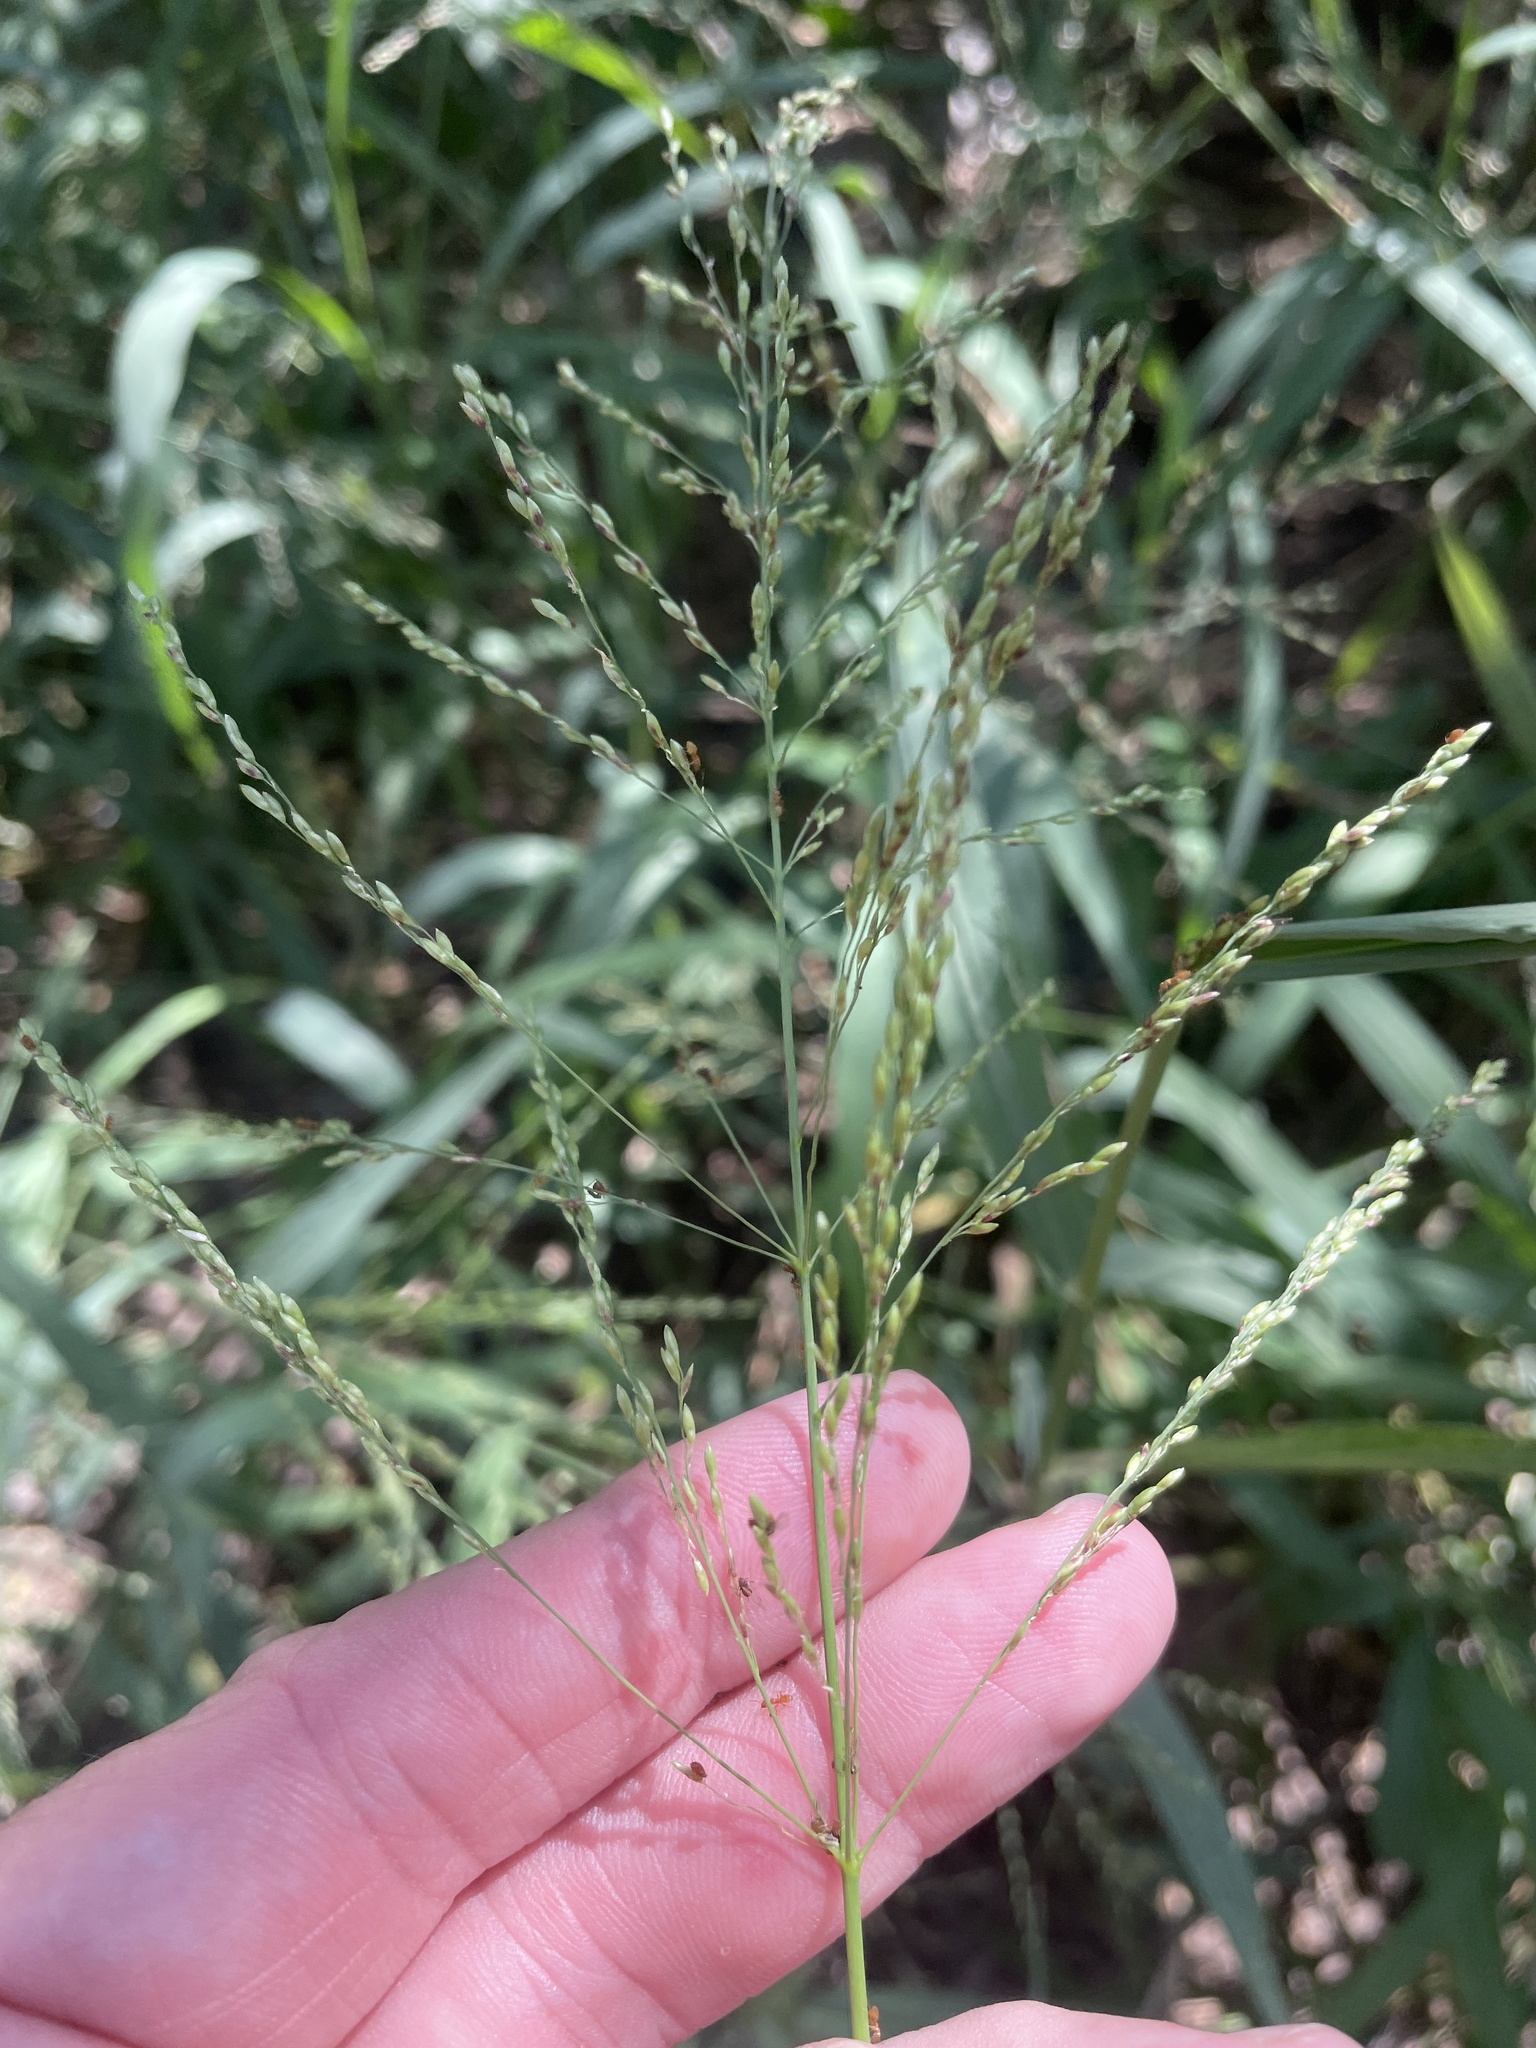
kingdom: Plantae
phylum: Tracheophyta
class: Liliopsida
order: Poales
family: Poaceae
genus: Megathyrsus
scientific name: Megathyrsus maximus
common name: Guineagrass
